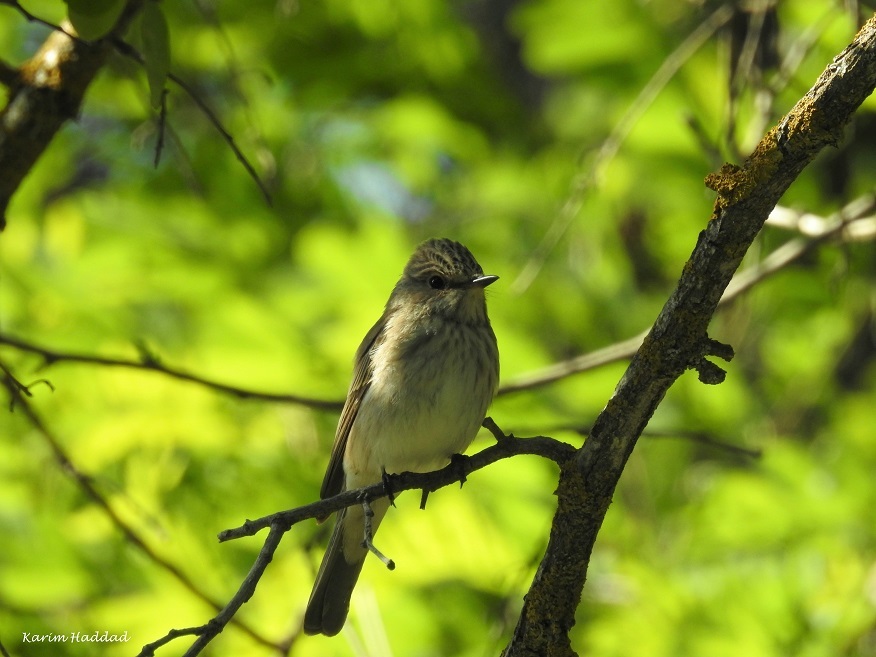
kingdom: Animalia
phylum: Chordata
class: Aves
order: Passeriformes
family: Muscicapidae
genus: Muscicapa
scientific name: Muscicapa striata
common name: Spotted flycatcher
